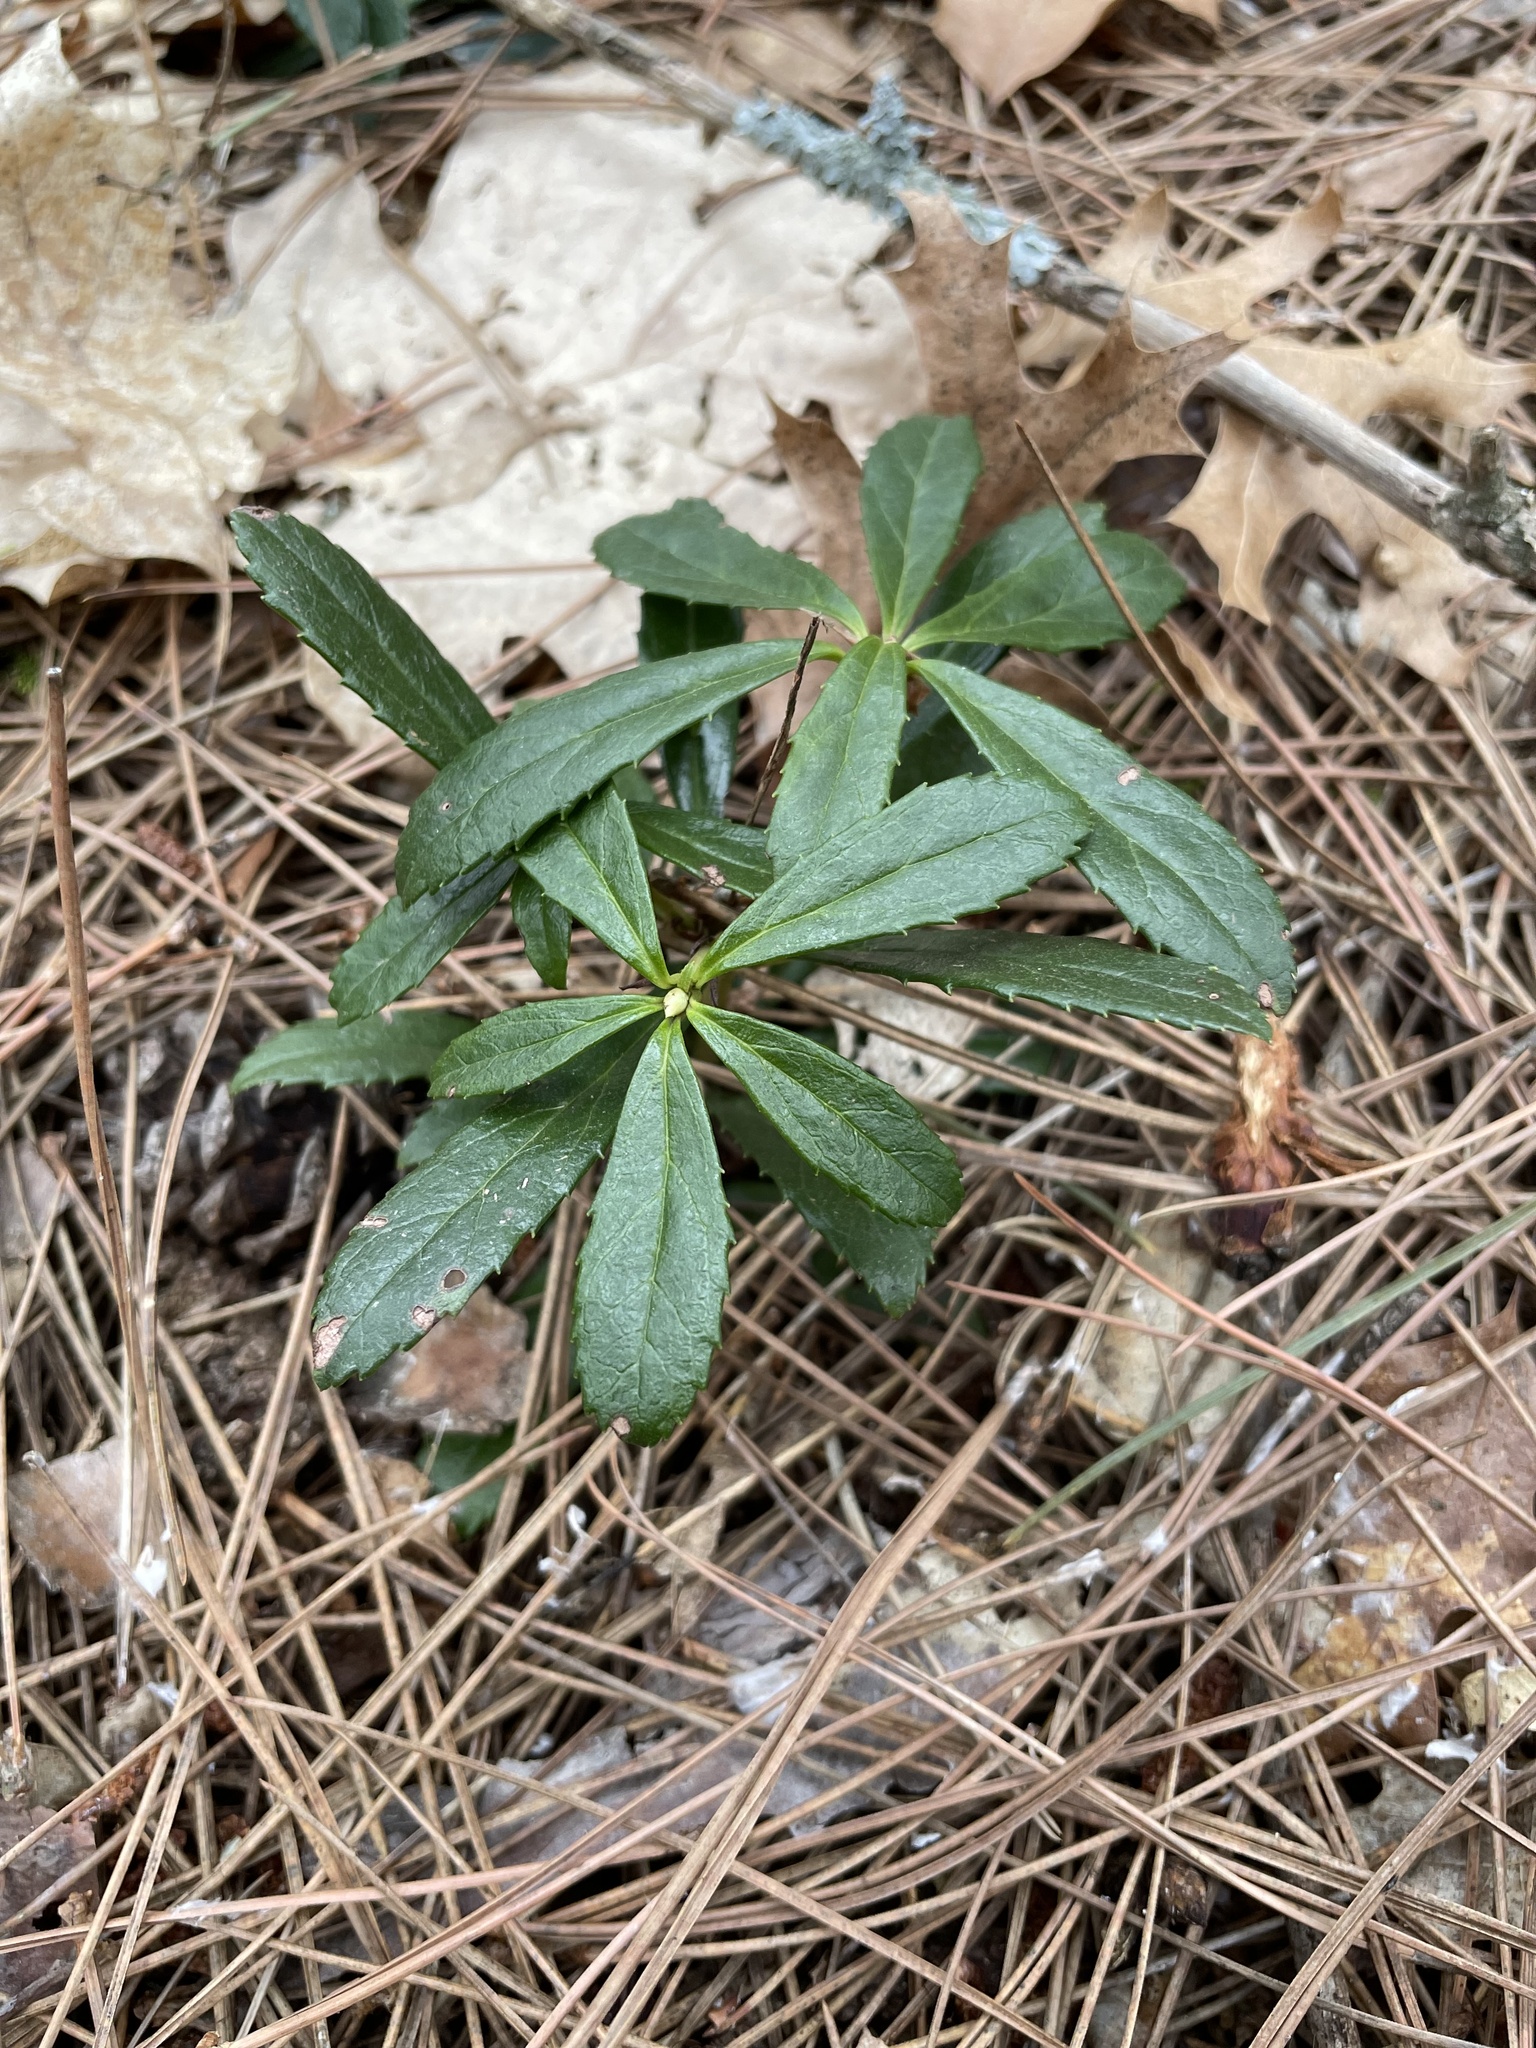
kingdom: Plantae
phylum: Tracheophyta
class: Magnoliopsida
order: Ericales
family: Ericaceae
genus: Chimaphila
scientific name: Chimaphila umbellata
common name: Pipsissewa
